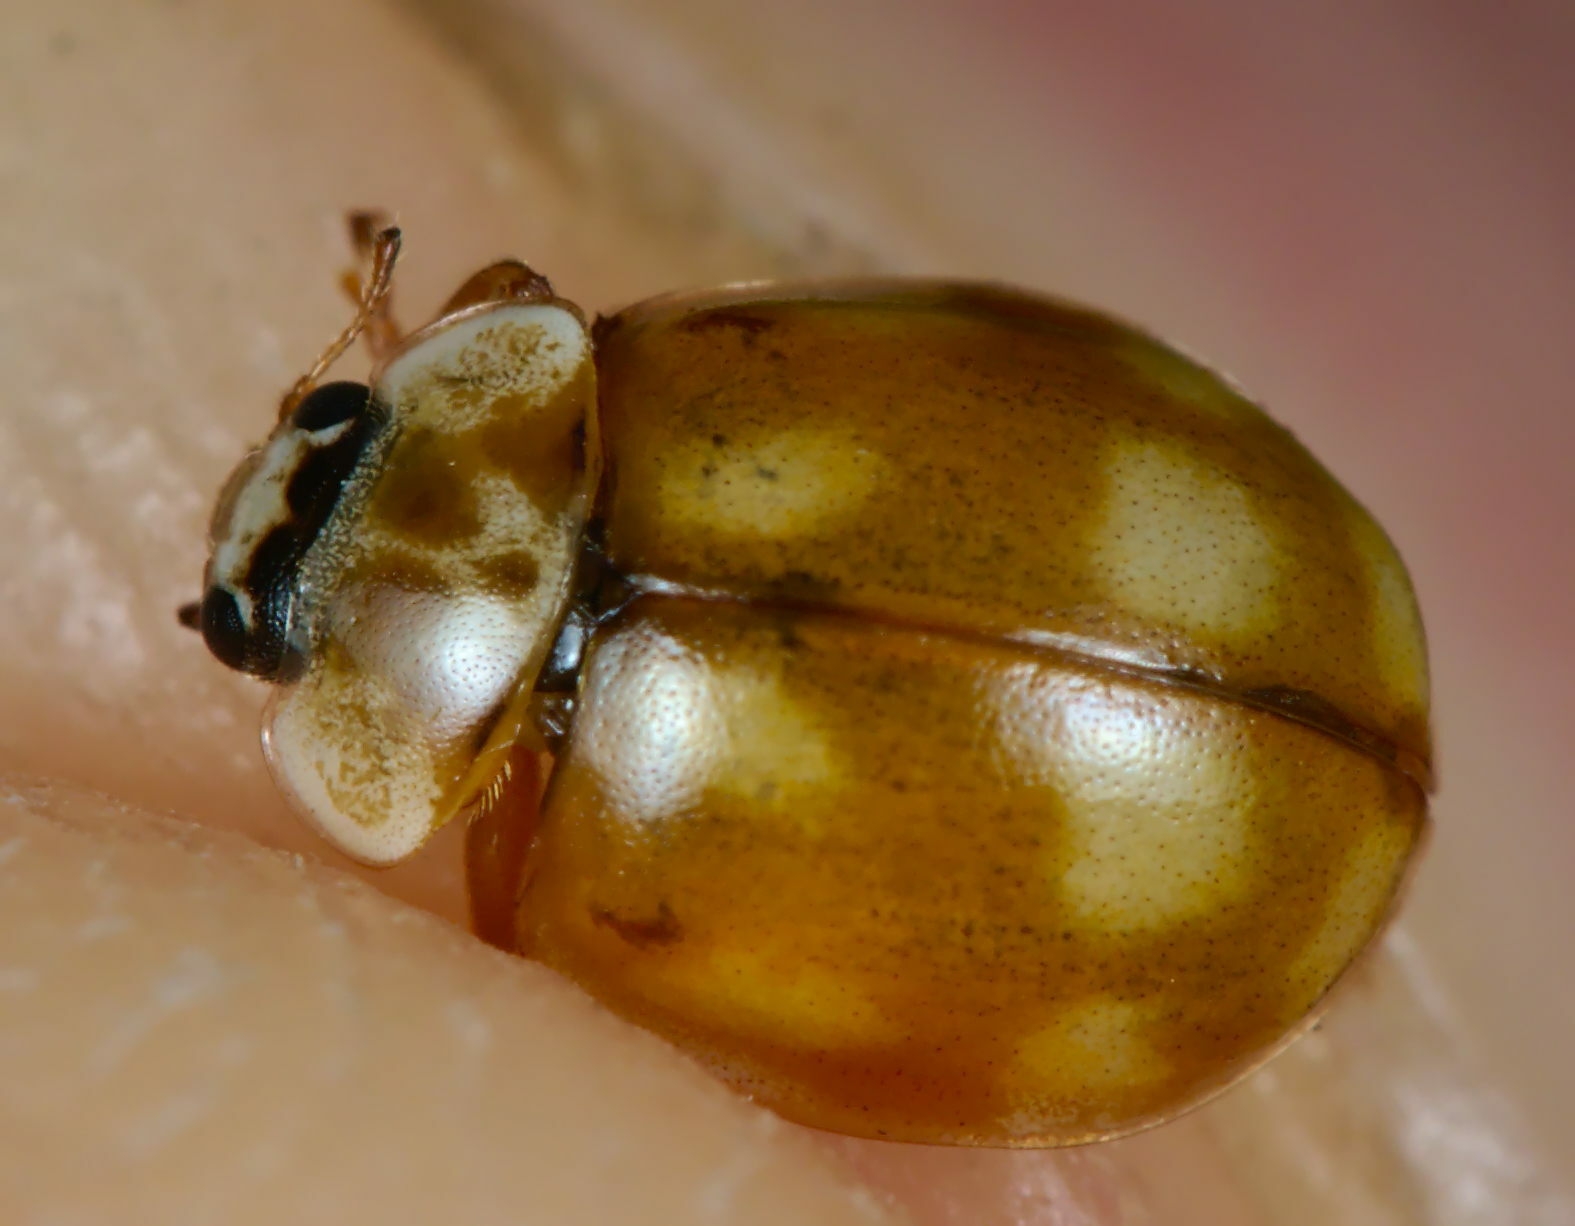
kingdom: Animalia
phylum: Arthropoda
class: Insecta
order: Coleoptera
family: Coccinellidae
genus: Adalia
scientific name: Adalia decempunctata
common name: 10-spot ladybird
